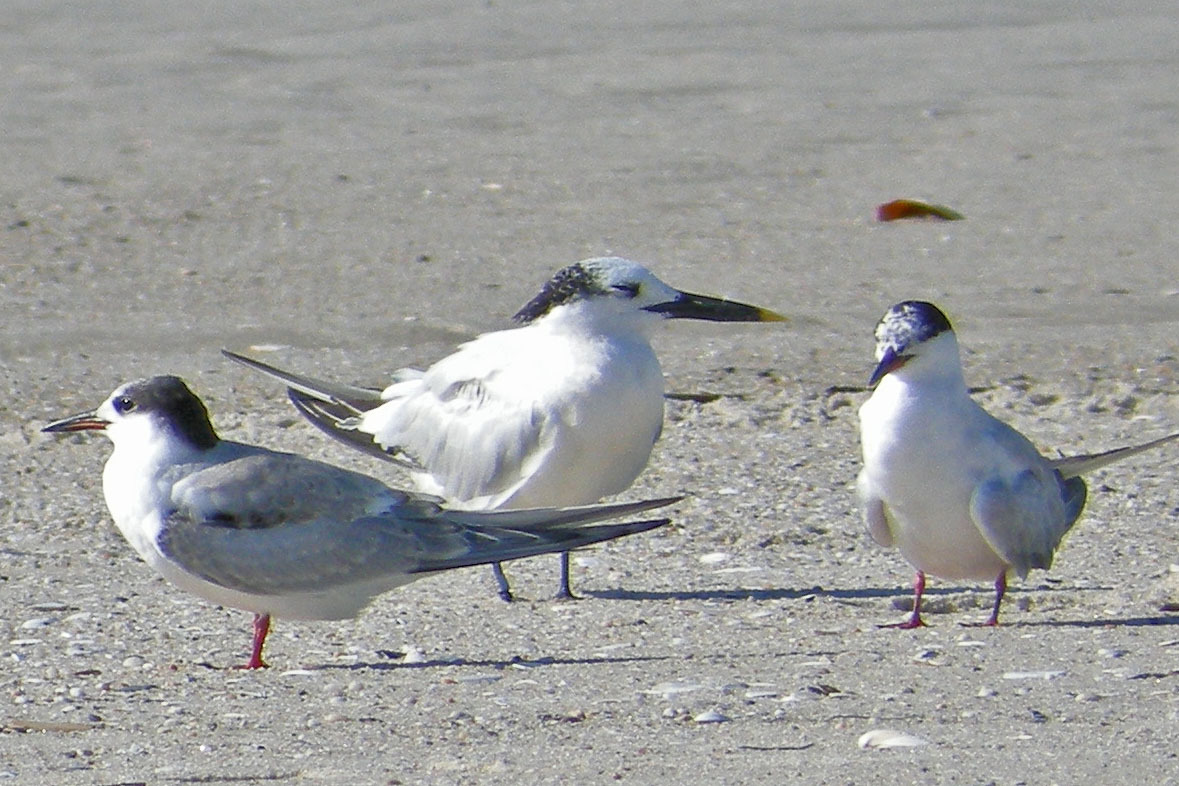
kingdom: Animalia
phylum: Chordata
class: Aves
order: Charadriiformes
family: Laridae
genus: Thalasseus
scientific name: Thalasseus sandvicensis
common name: Sandwich tern
